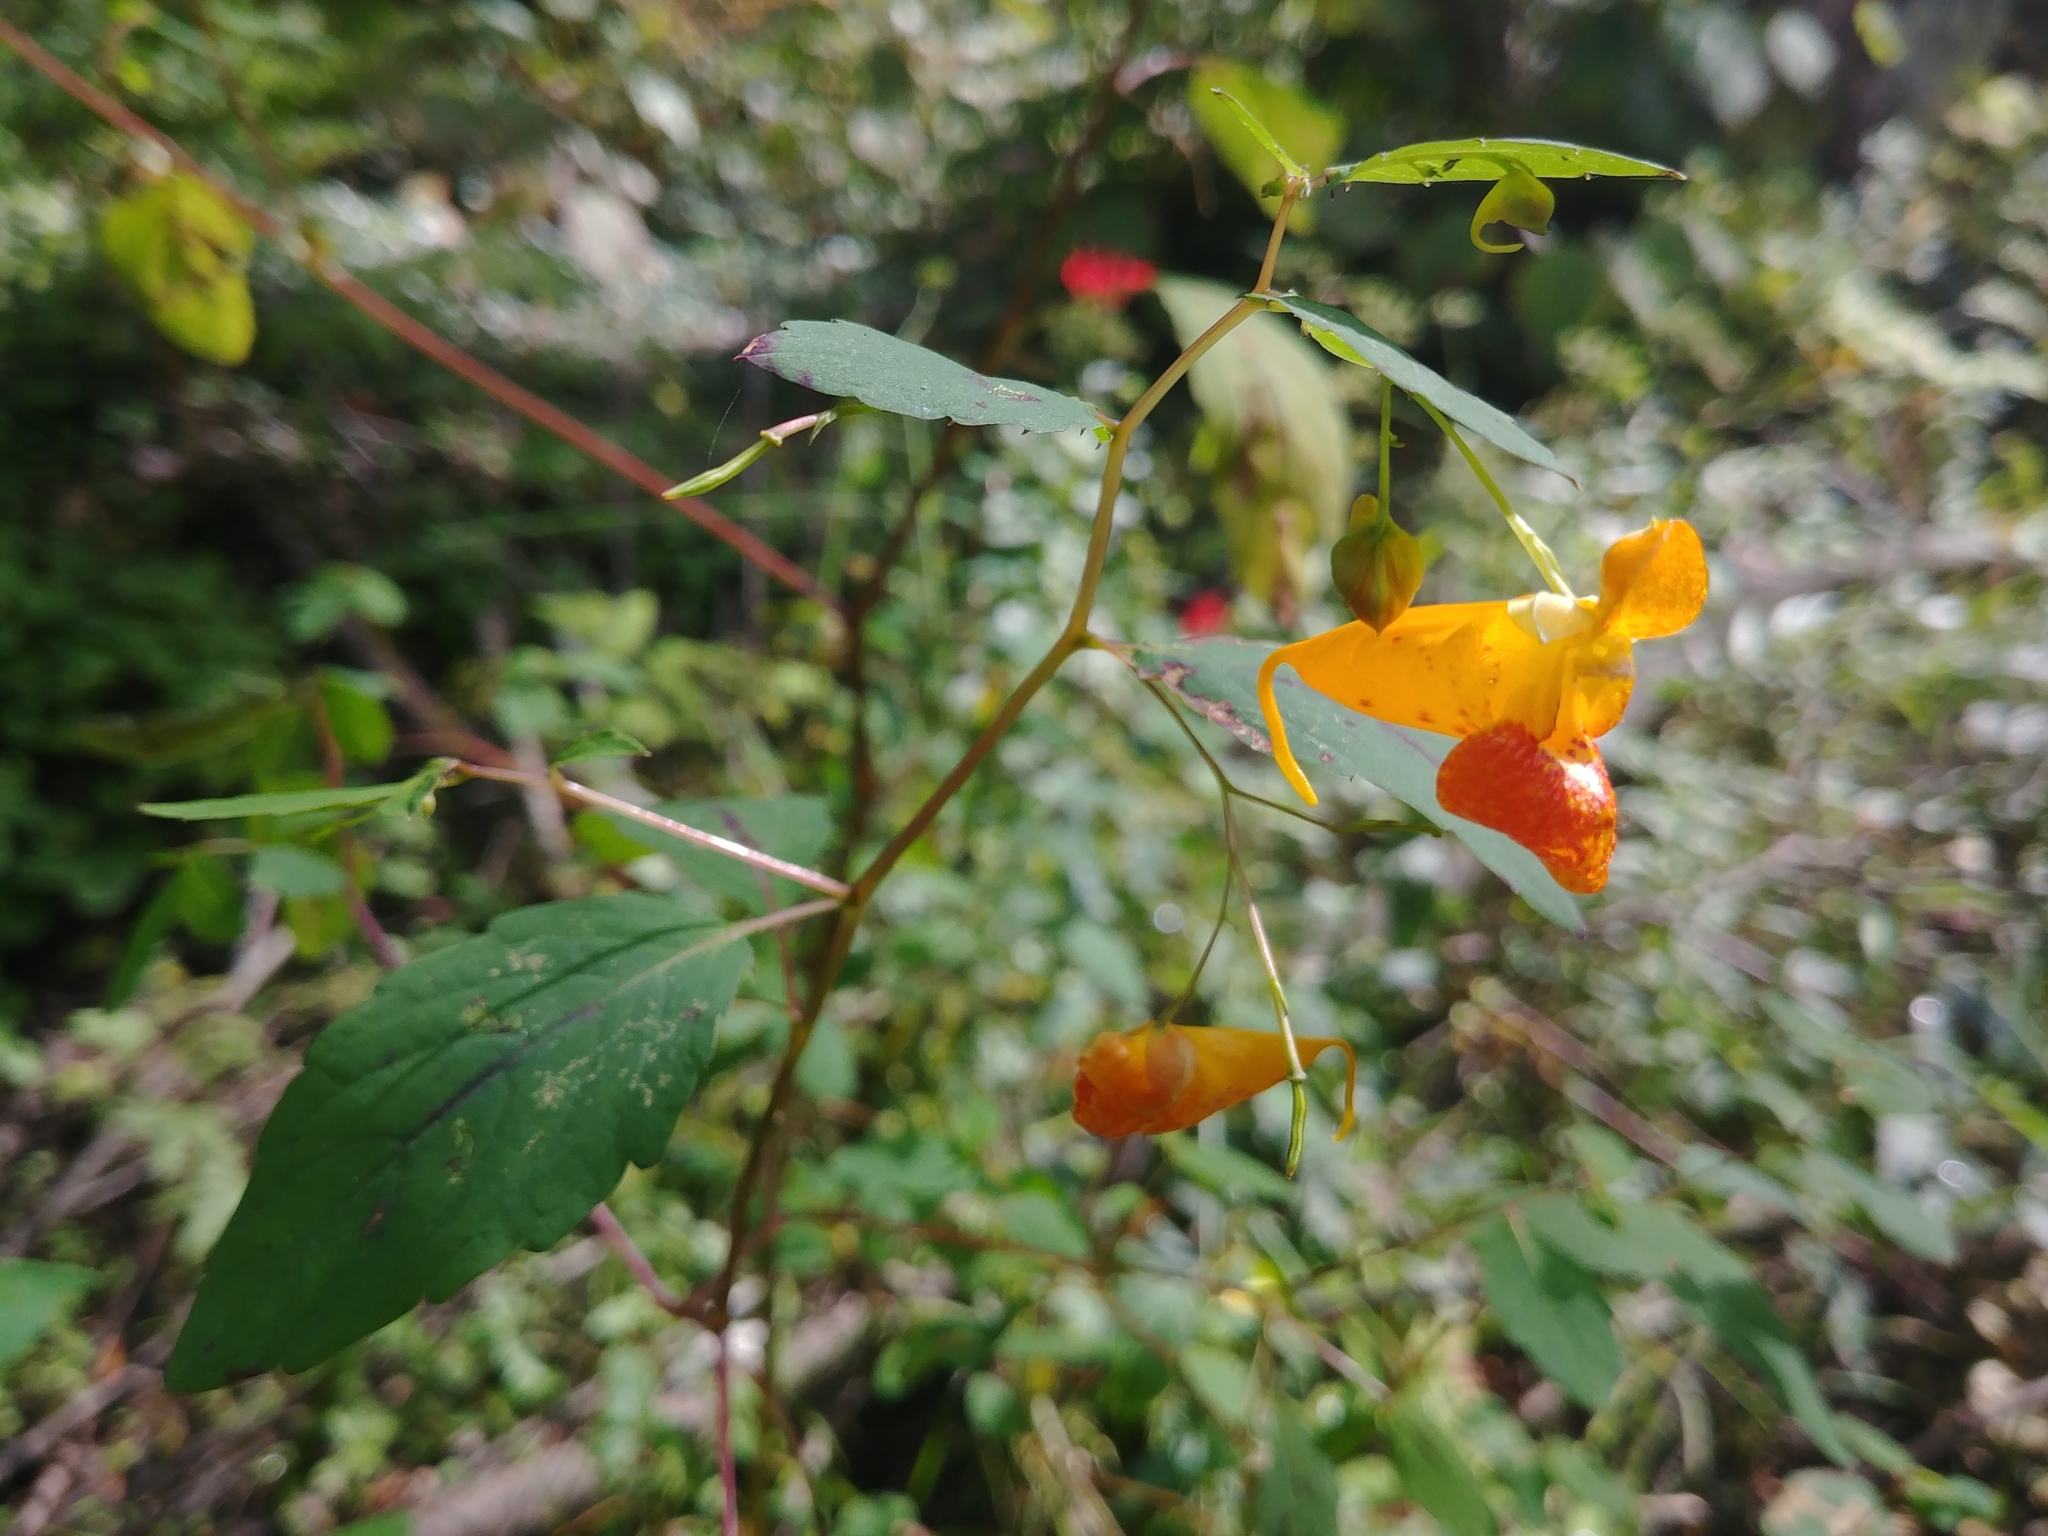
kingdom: Plantae
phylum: Tracheophyta
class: Magnoliopsida
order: Ericales
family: Balsaminaceae
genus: Impatiens
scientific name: Impatiens capensis
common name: Orange balsam
